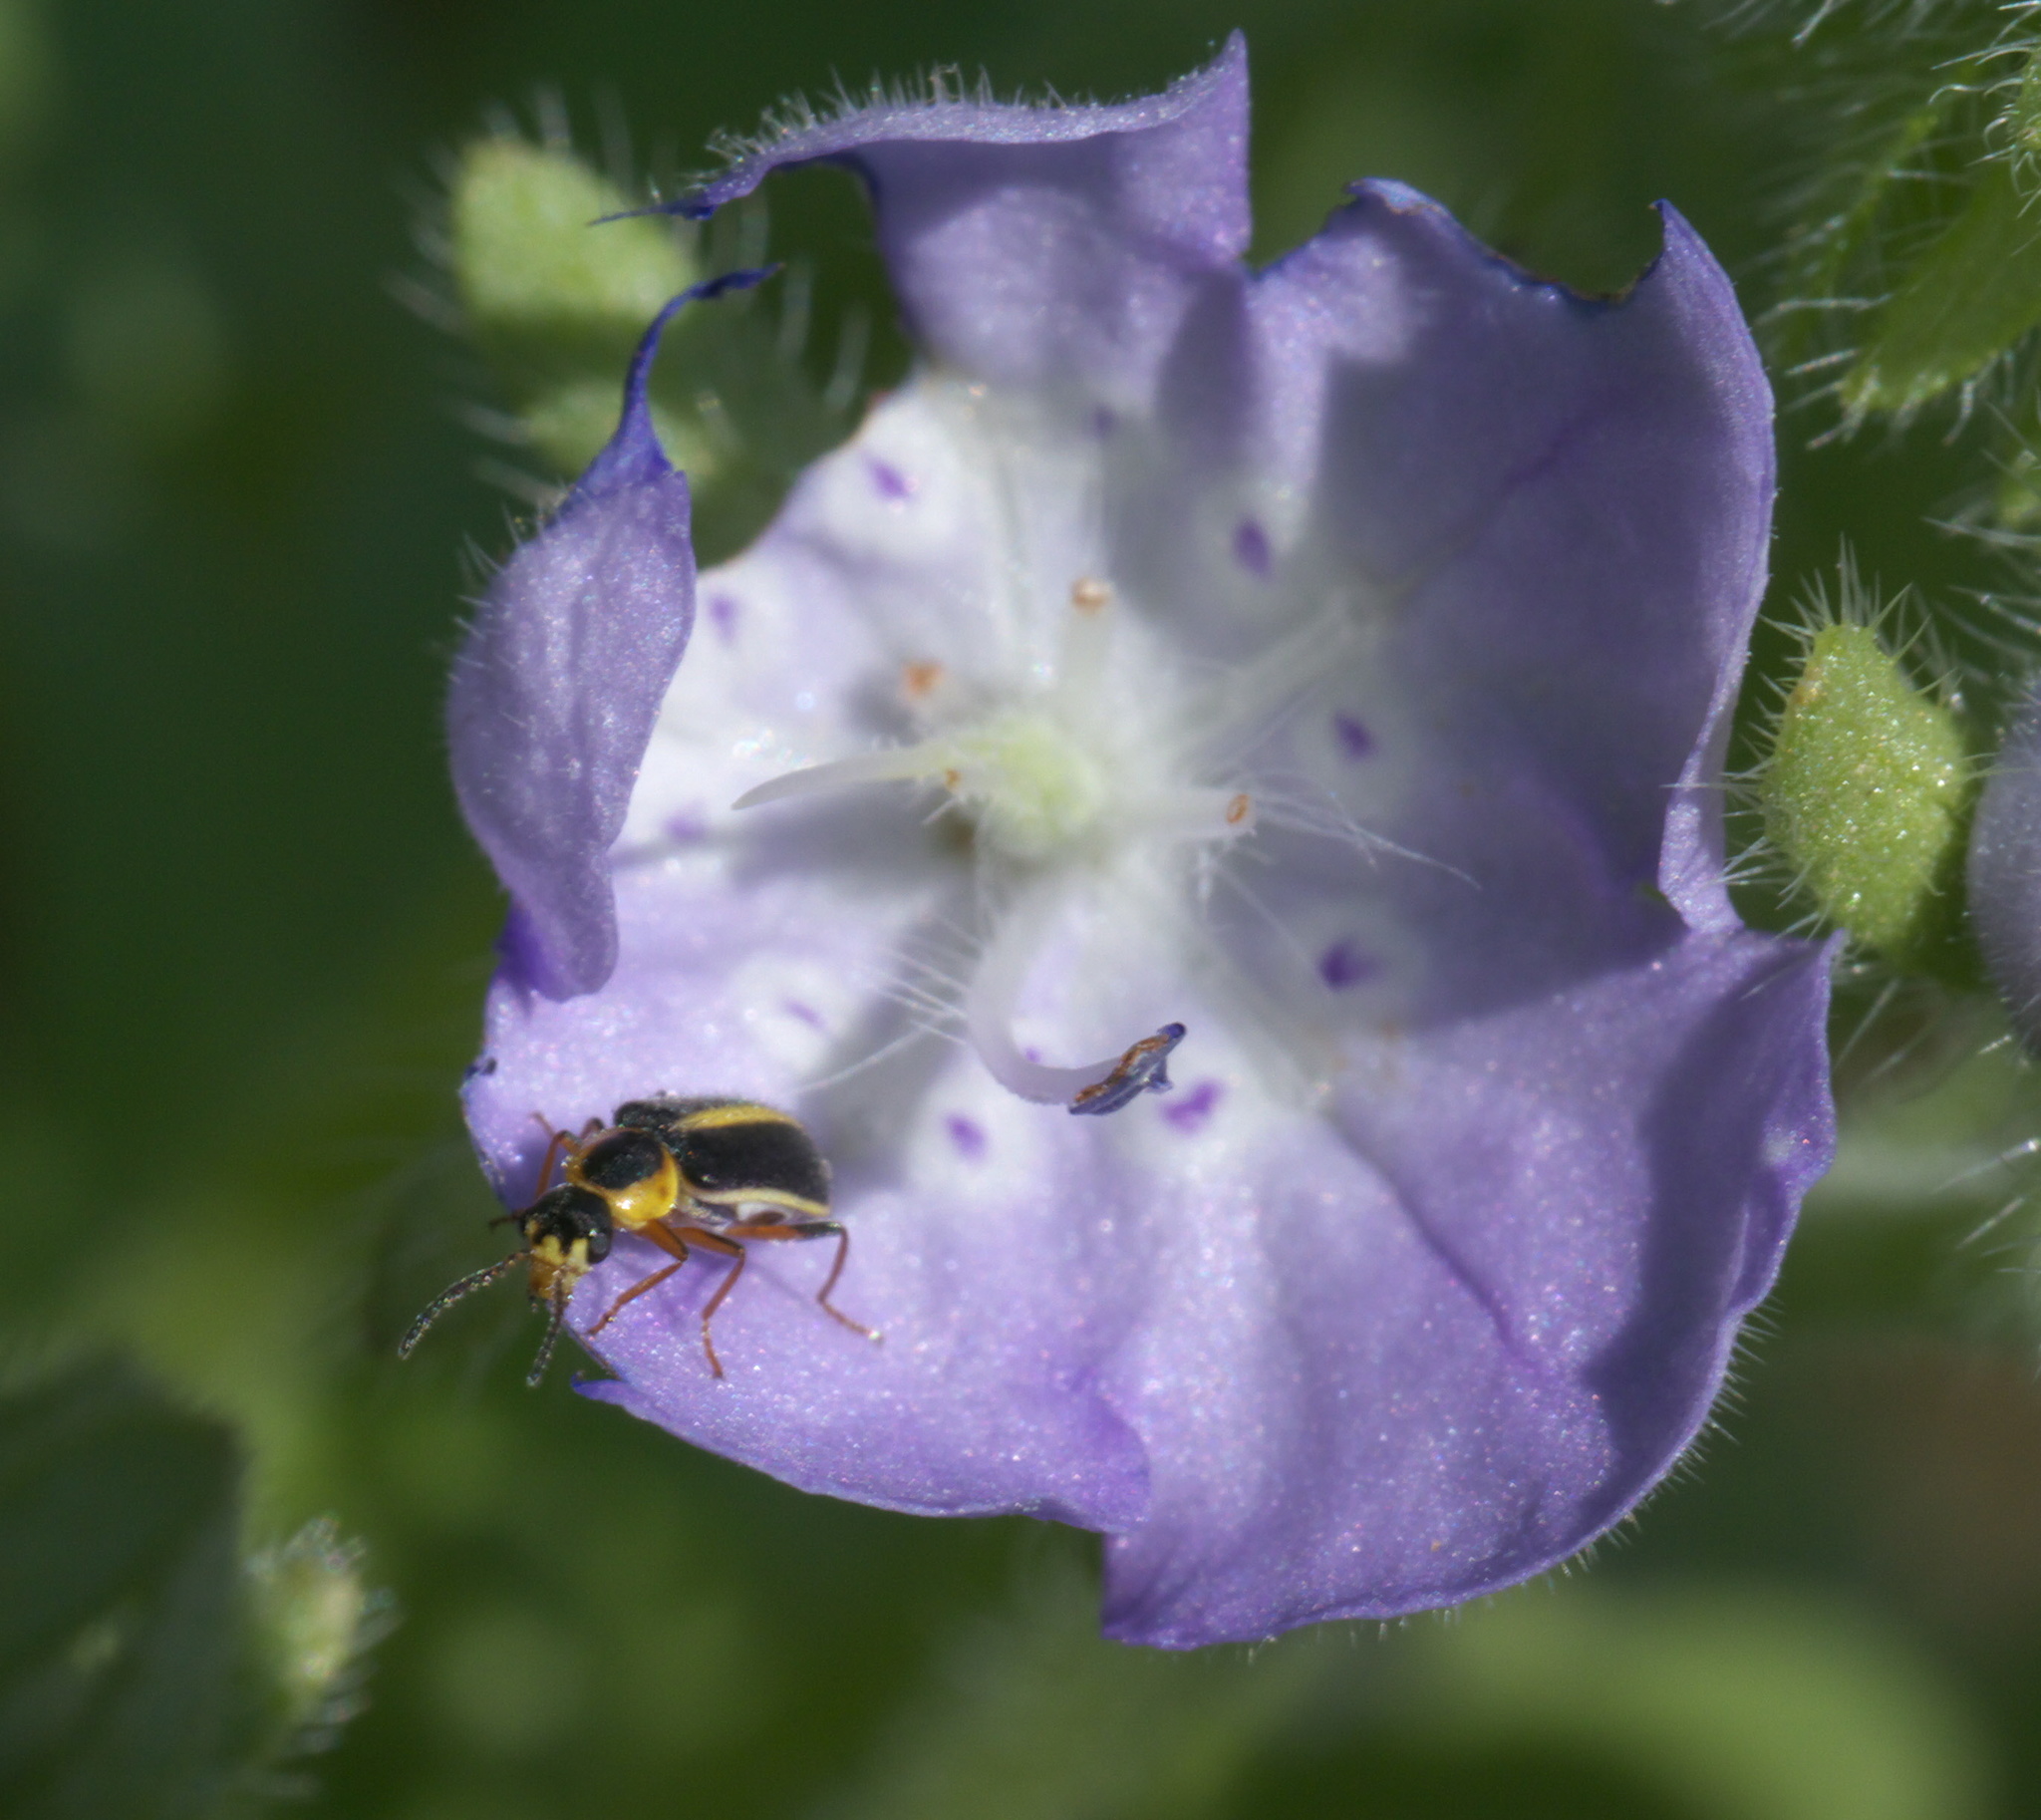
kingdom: Animalia
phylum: Arthropoda
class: Insecta
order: Coleoptera
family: Malachiidae
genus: Attalus
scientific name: Attalus
